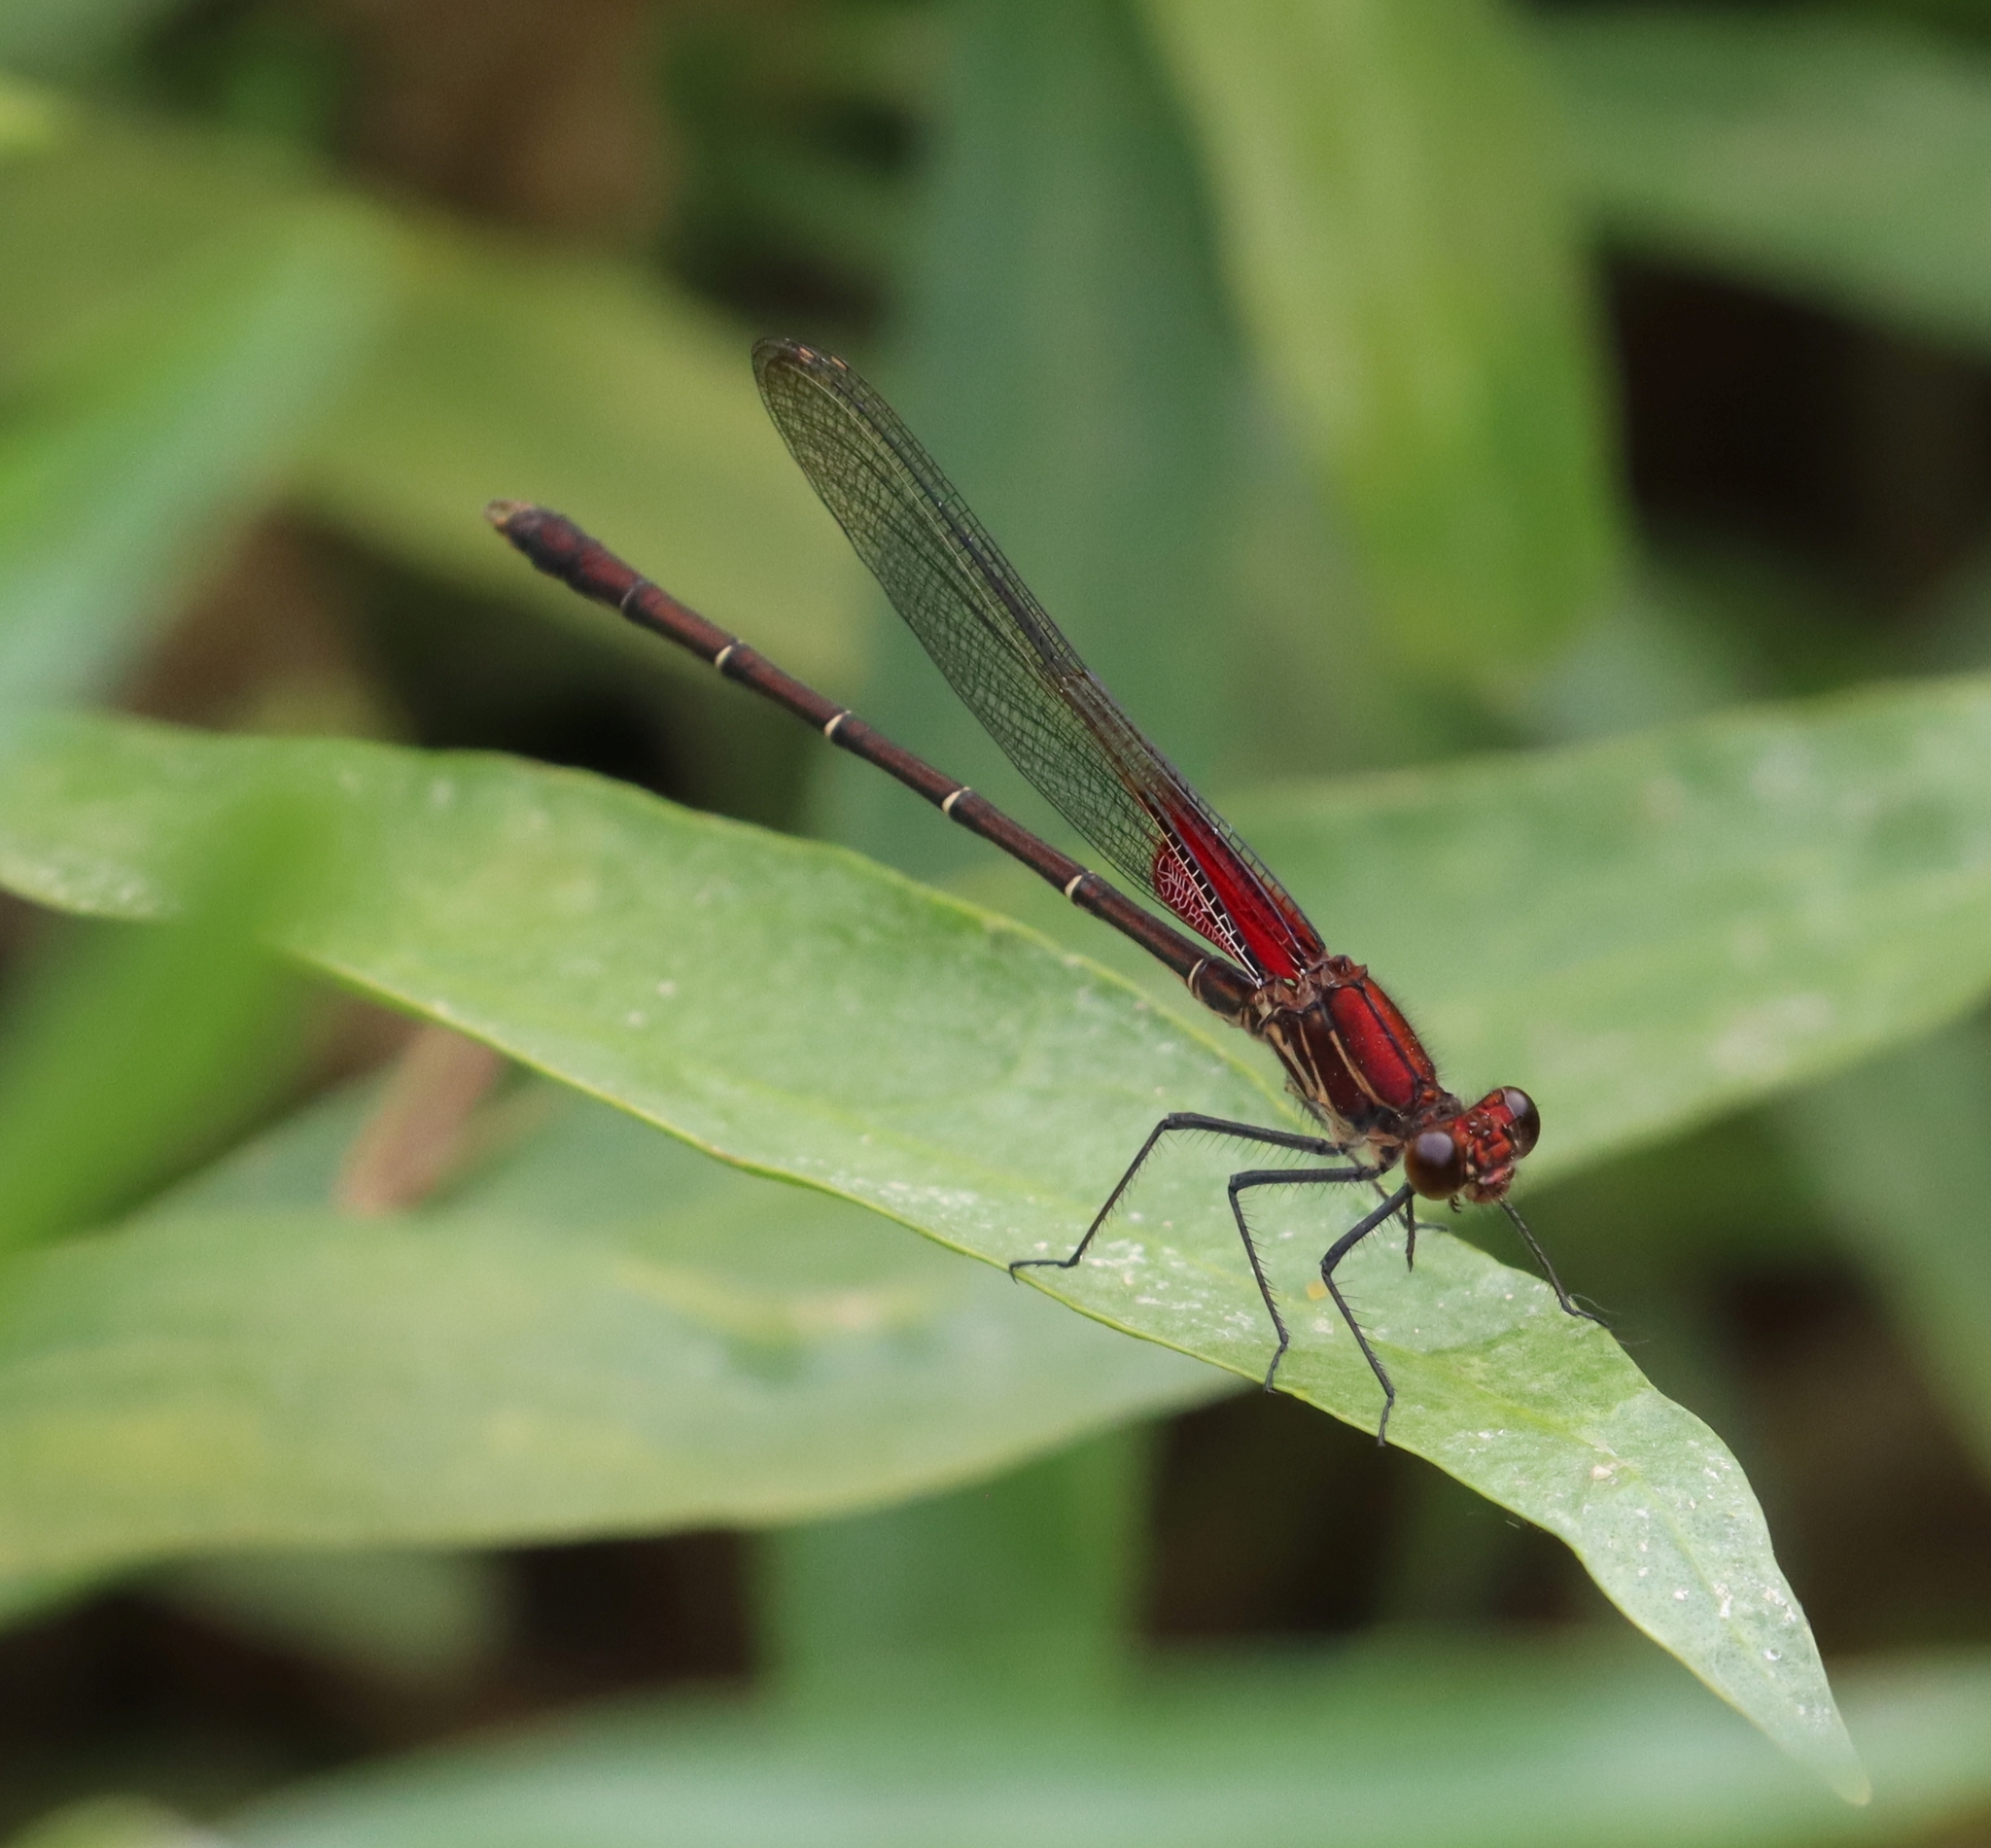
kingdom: Animalia
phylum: Arthropoda
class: Insecta
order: Odonata
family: Calopterygidae
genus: Hetaerina
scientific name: Hetaerina americana
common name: American rubyspot
